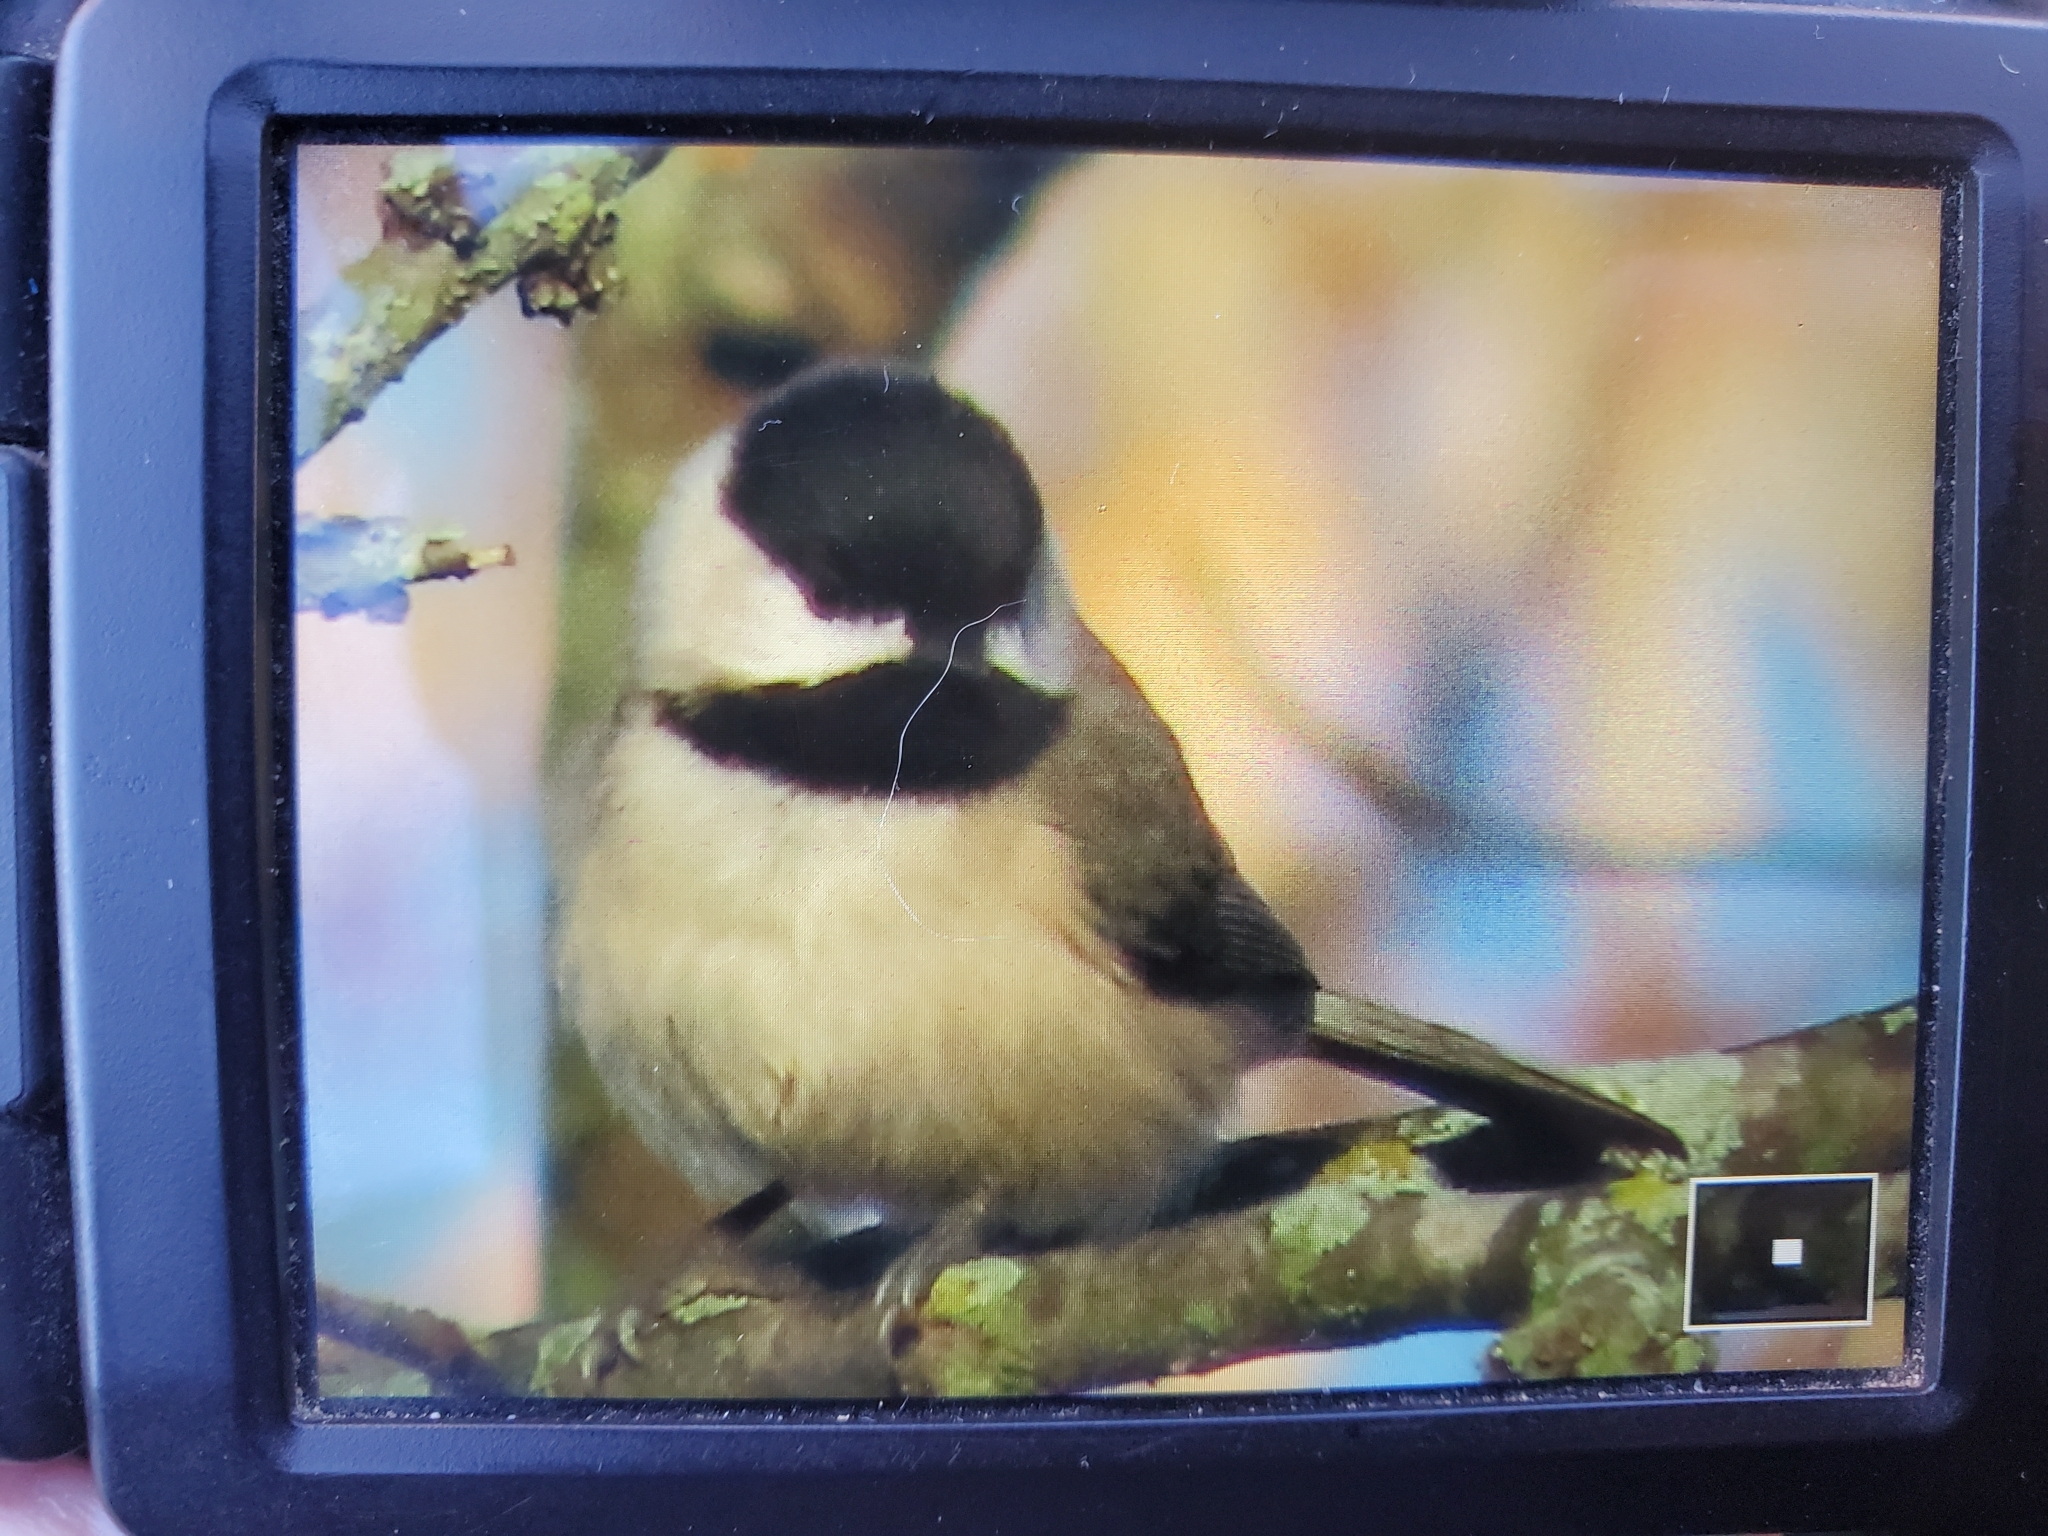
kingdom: Animalia
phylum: Chordata
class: Aves
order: Passeriformes
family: Paridae
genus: Poecile
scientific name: Poecile carolinensis
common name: Carolina chickadee
